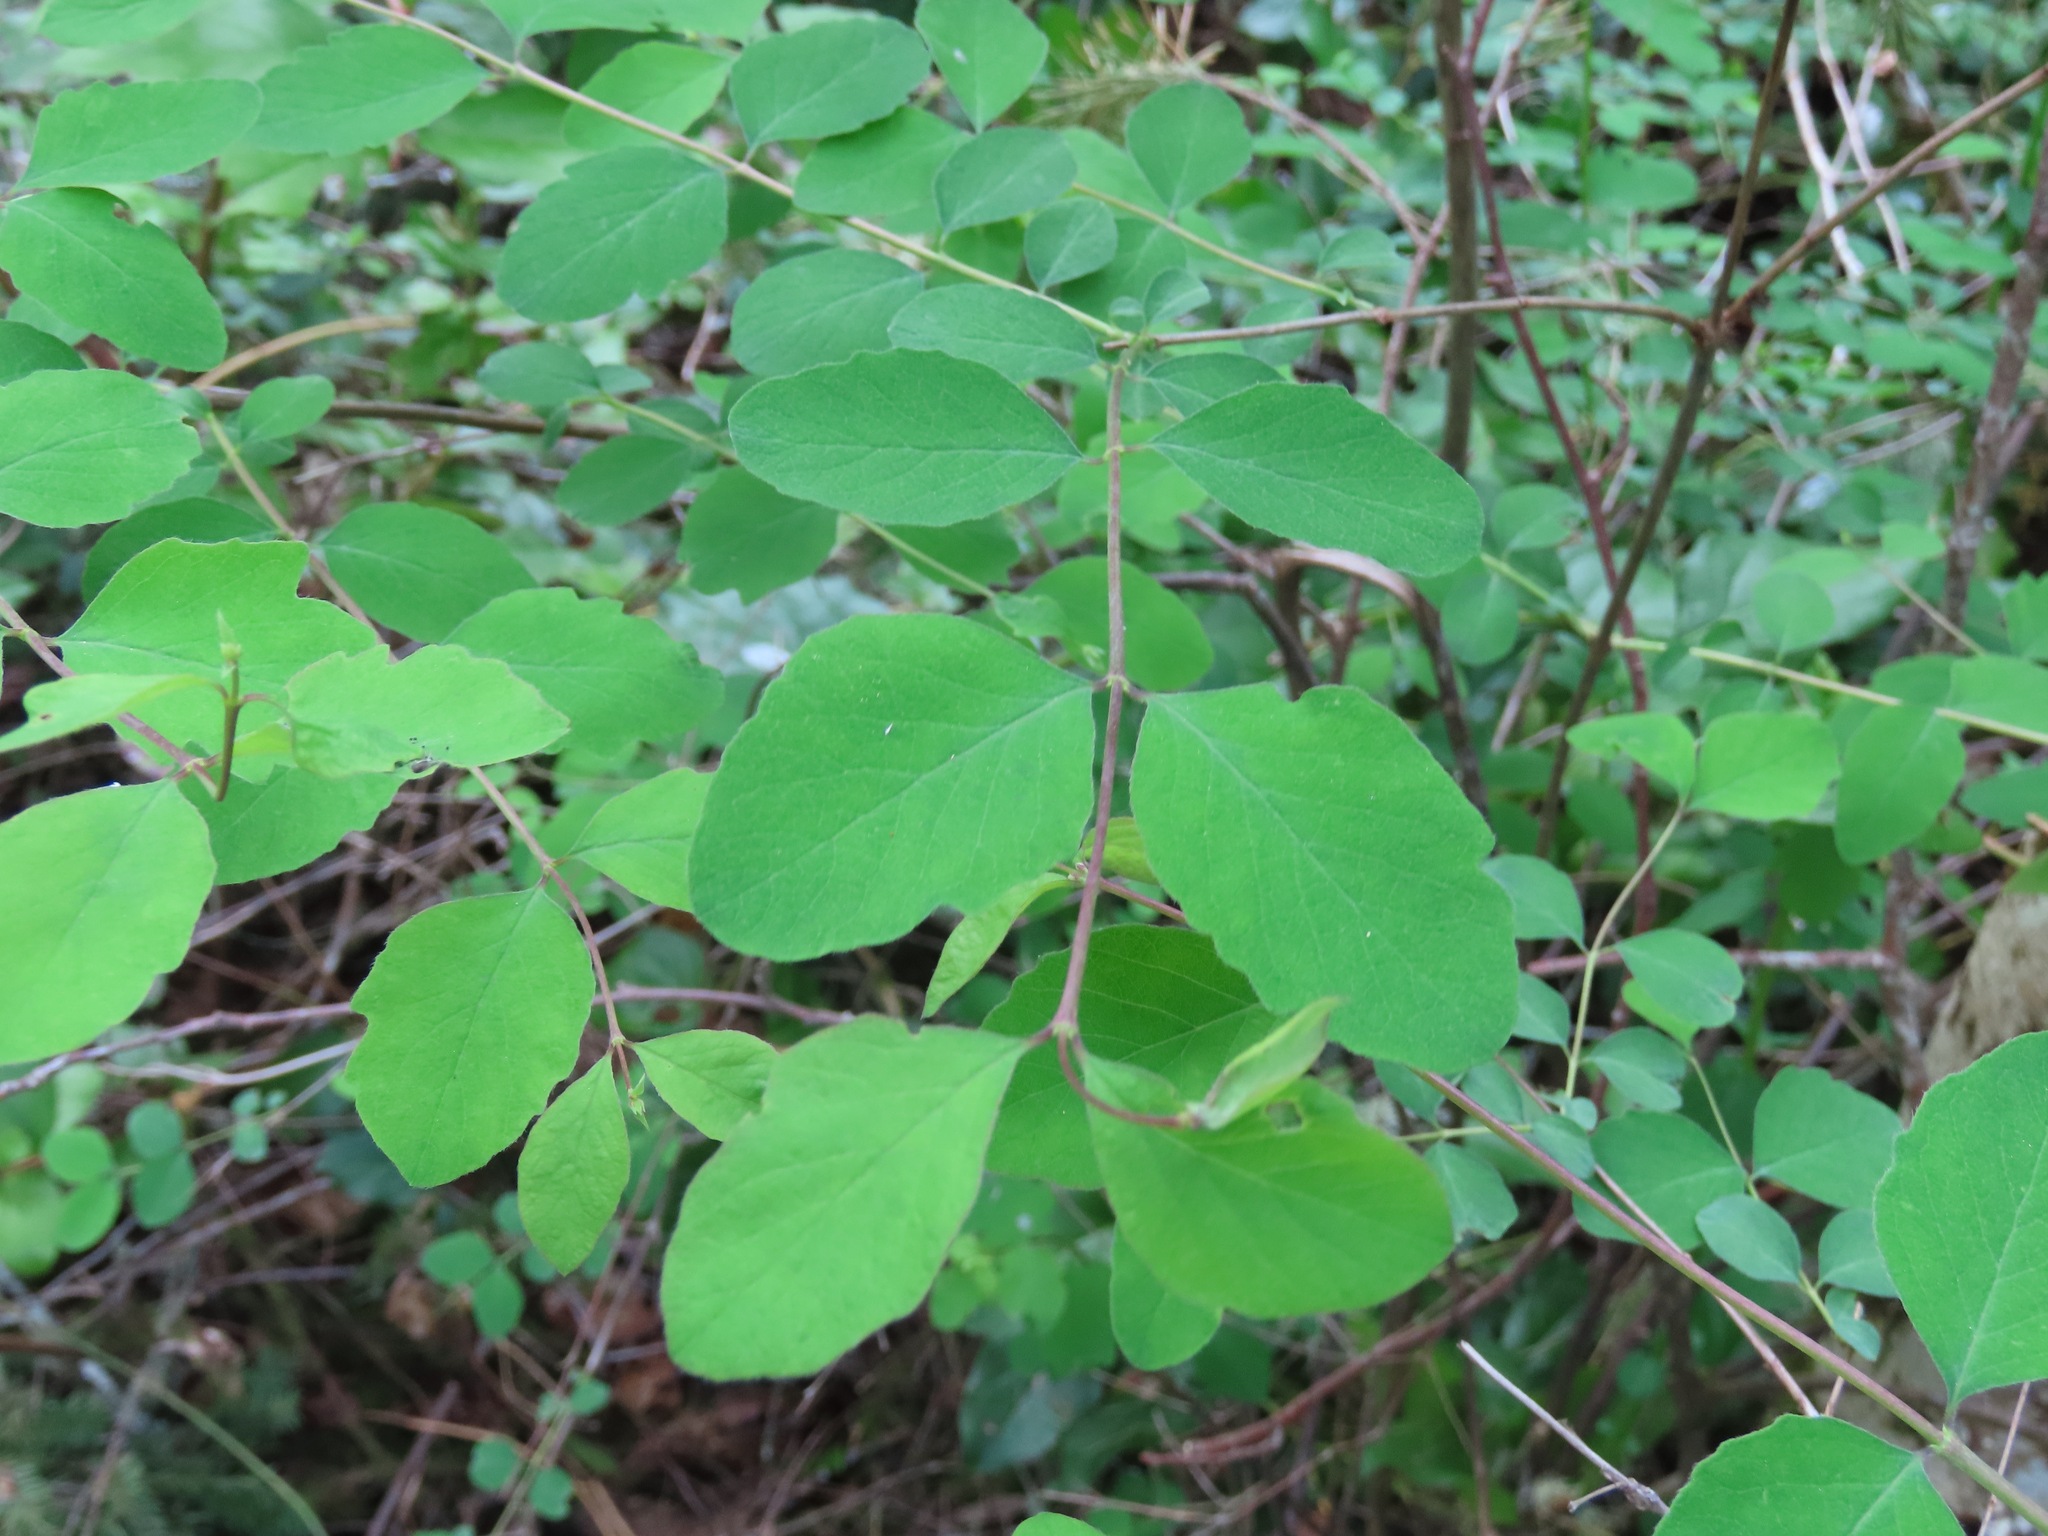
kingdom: Plantae
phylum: Tracheophyta
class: Magnoliopsida
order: Dipsacales
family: Caprifoliaceae
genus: Symphoricarpos
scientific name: Symphoricarpos albus
